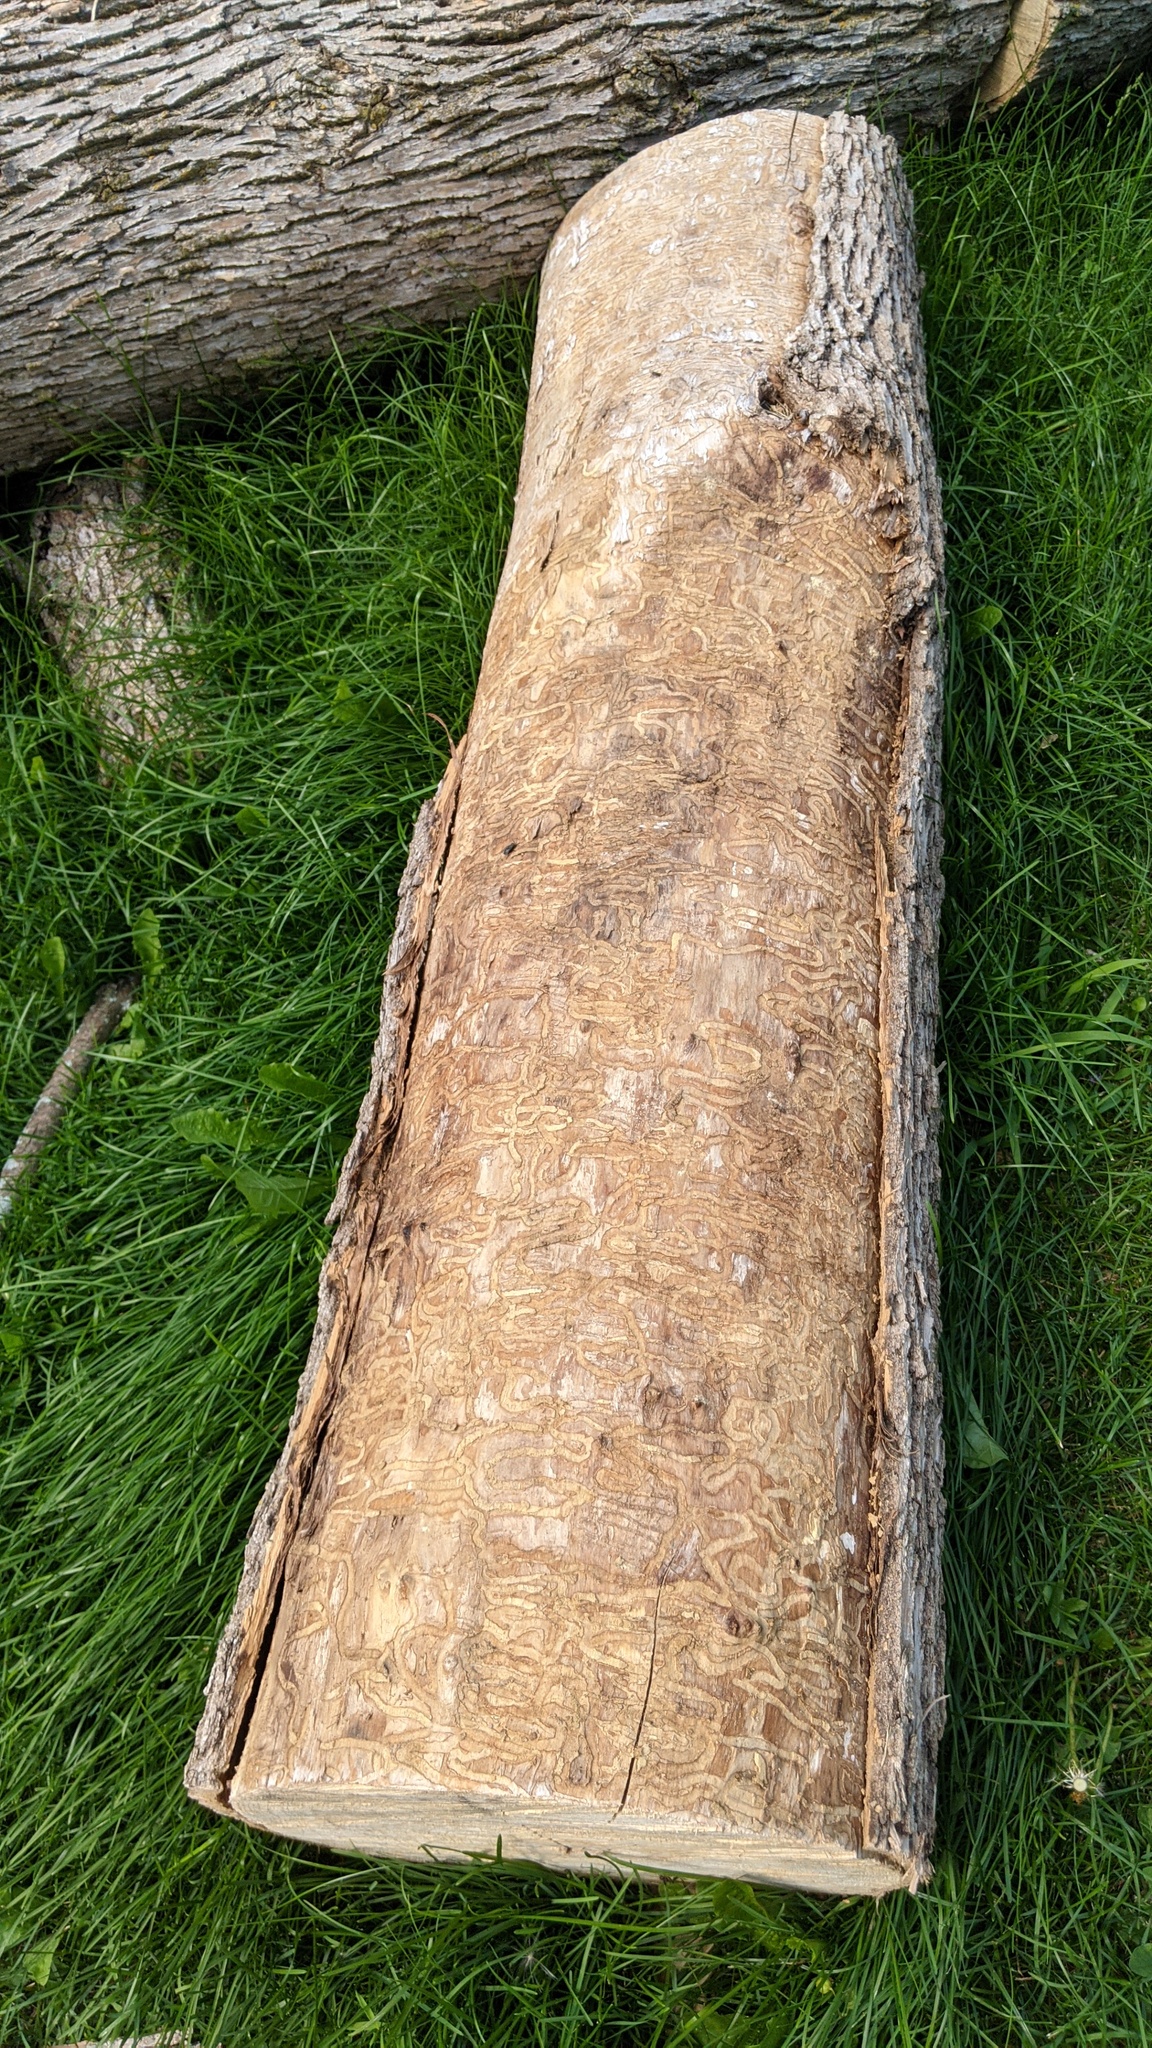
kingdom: Animalia
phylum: Arthropoda
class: Insecta
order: Coleoptera
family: Buprestidae
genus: Agrilus
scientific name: Agrilus planipennis
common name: Emerald ash borer
